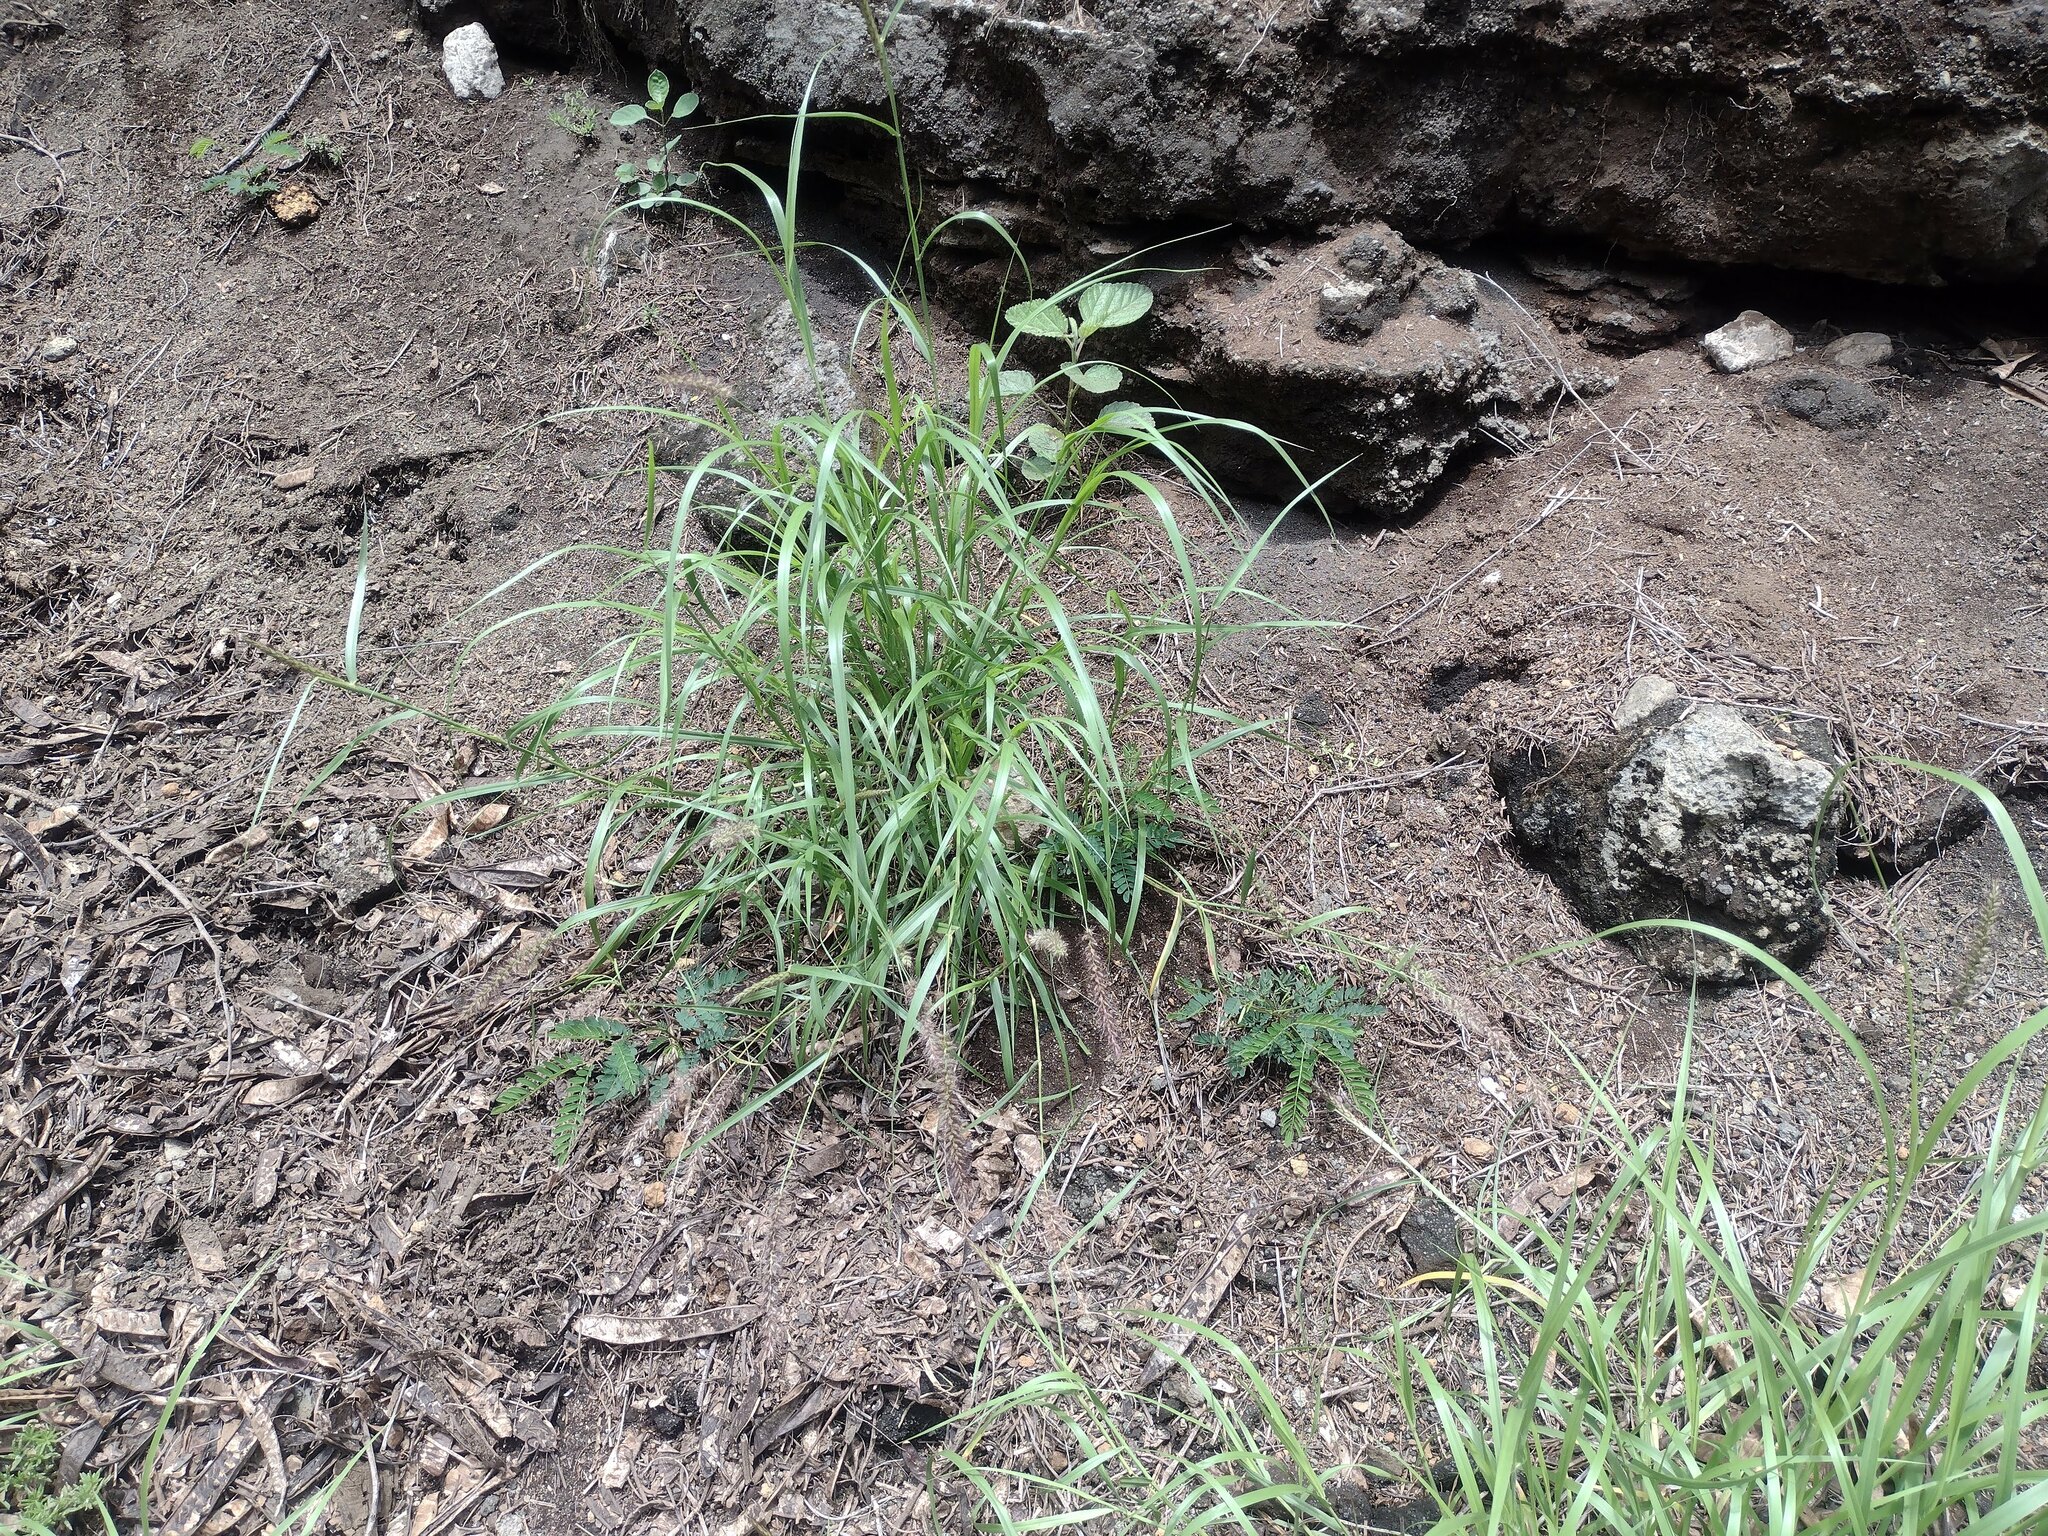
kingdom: Plantae
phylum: Tracheophyta
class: Liliopsida
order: Poales
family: Poaceae
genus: Cenchrus
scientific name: Cenchrus ciliaris
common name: Buffelgrass
